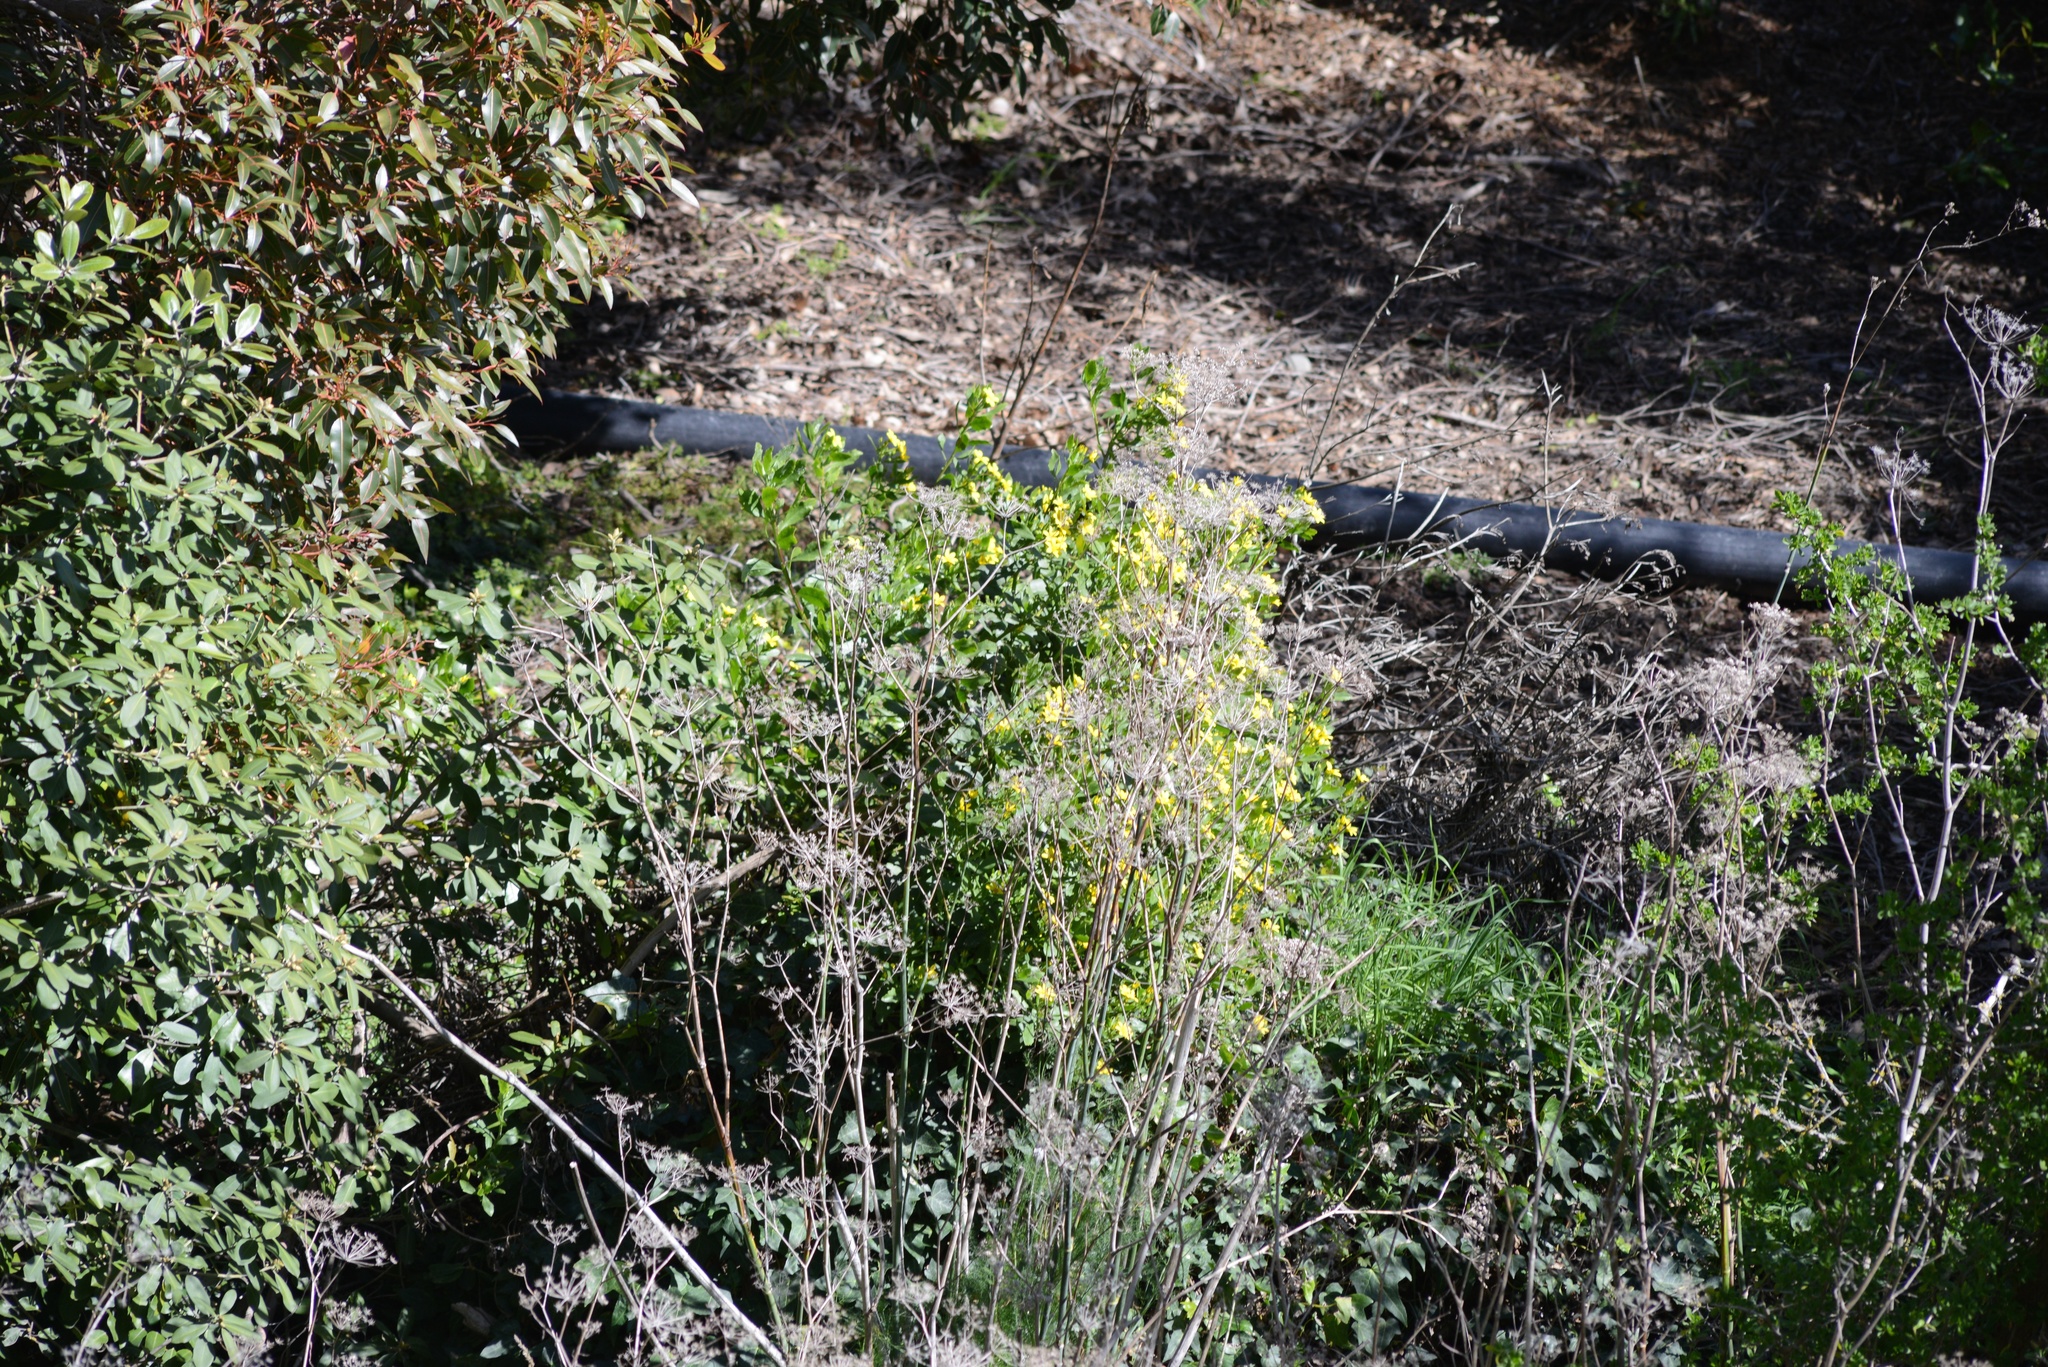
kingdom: Plantae
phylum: Tracheophyta
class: Magnoliopsida
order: Asterales
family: Asteraceae
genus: Osteospermum
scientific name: Osteospermum moniliferum
